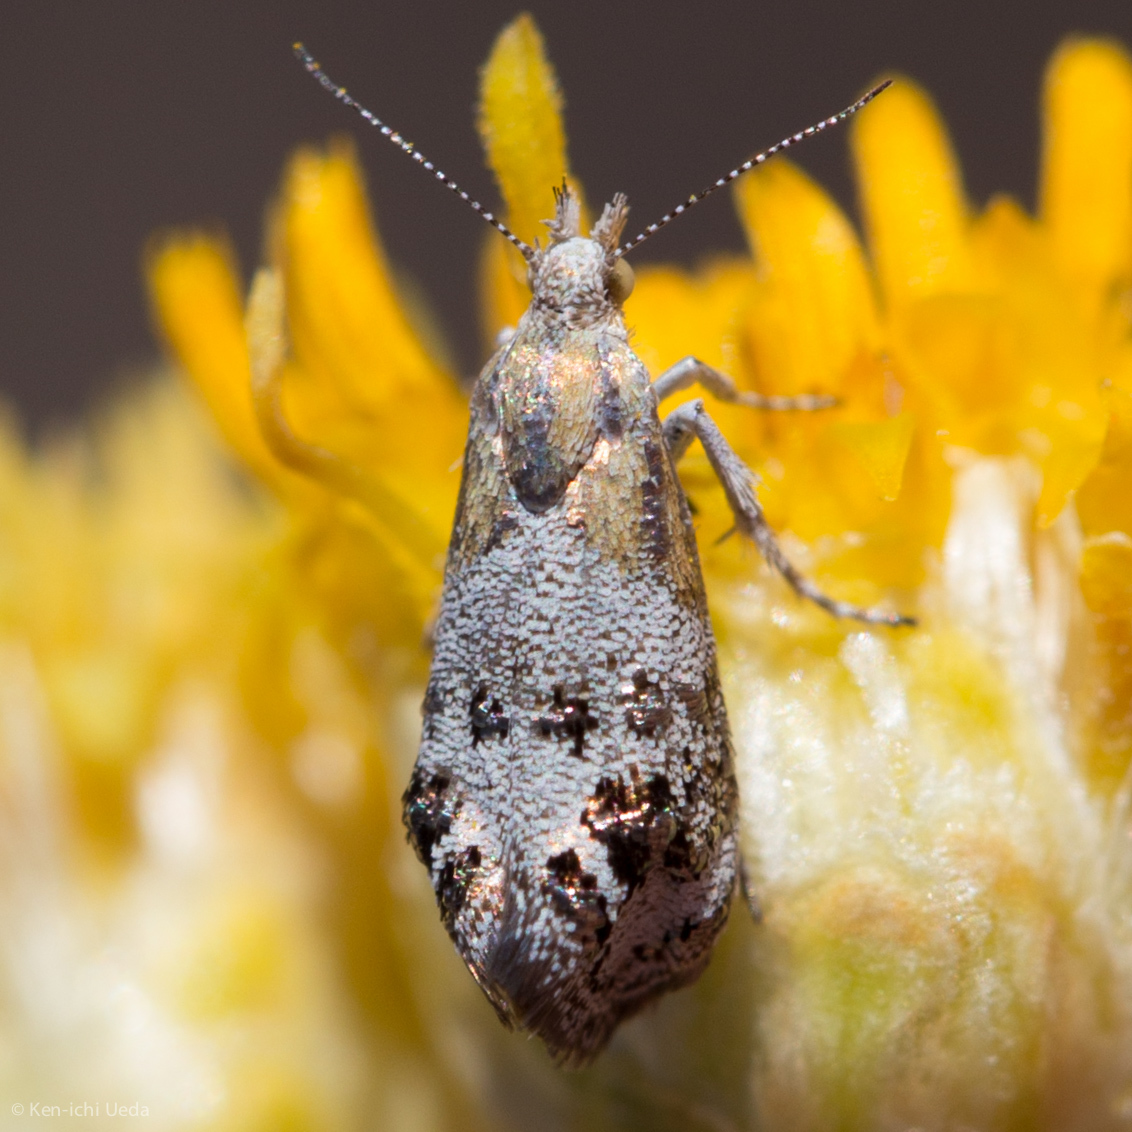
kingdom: Animalia
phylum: Arthropoda
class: Insecta
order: Lepidoptera
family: Choreutidae
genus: Tebenna
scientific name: Tebenna gnaphaliella
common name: Everlasting tebenna moth
